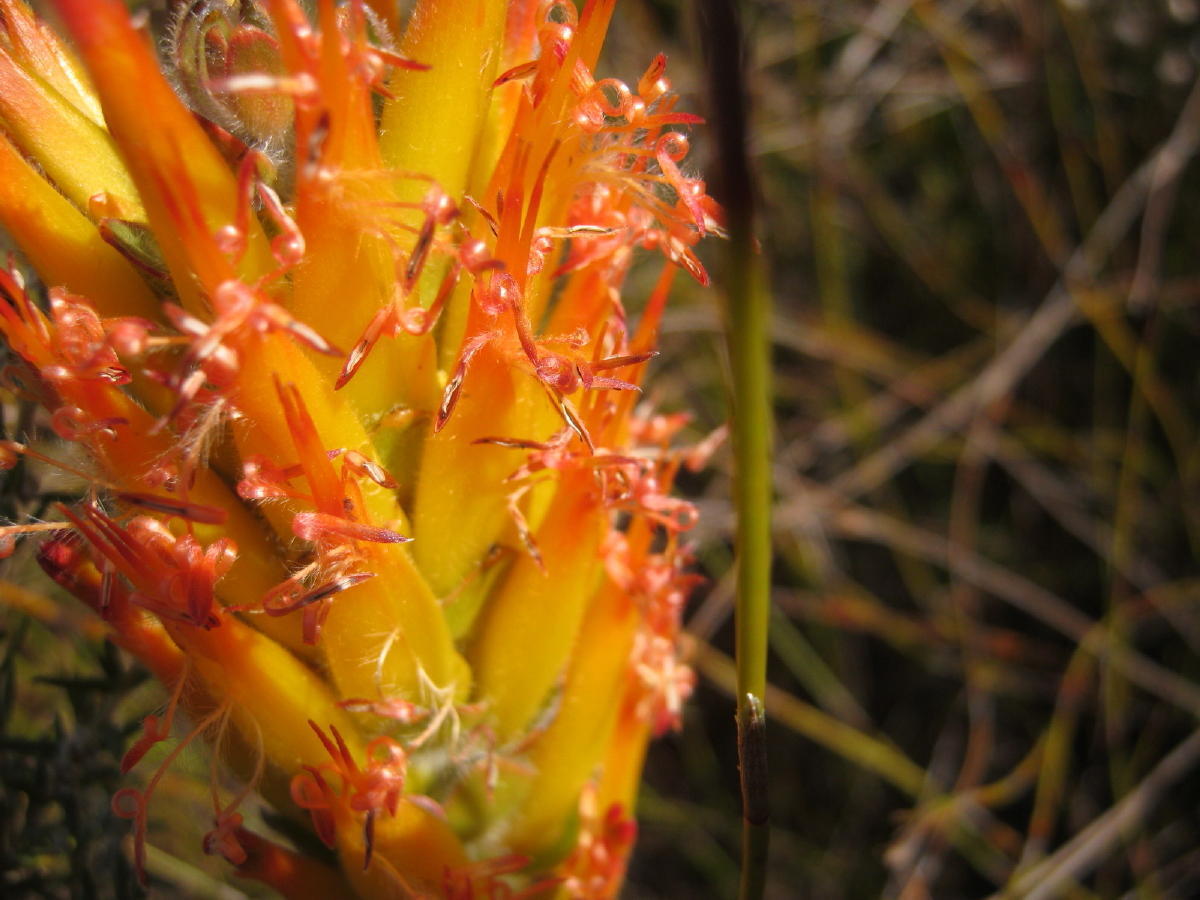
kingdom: Plantae
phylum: Tracheophyta
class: Magnoliopsida
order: Proteales
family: Proteaceae
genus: Mimetes
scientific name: Mimetes pauciflora
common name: Three-flowered pagoda
